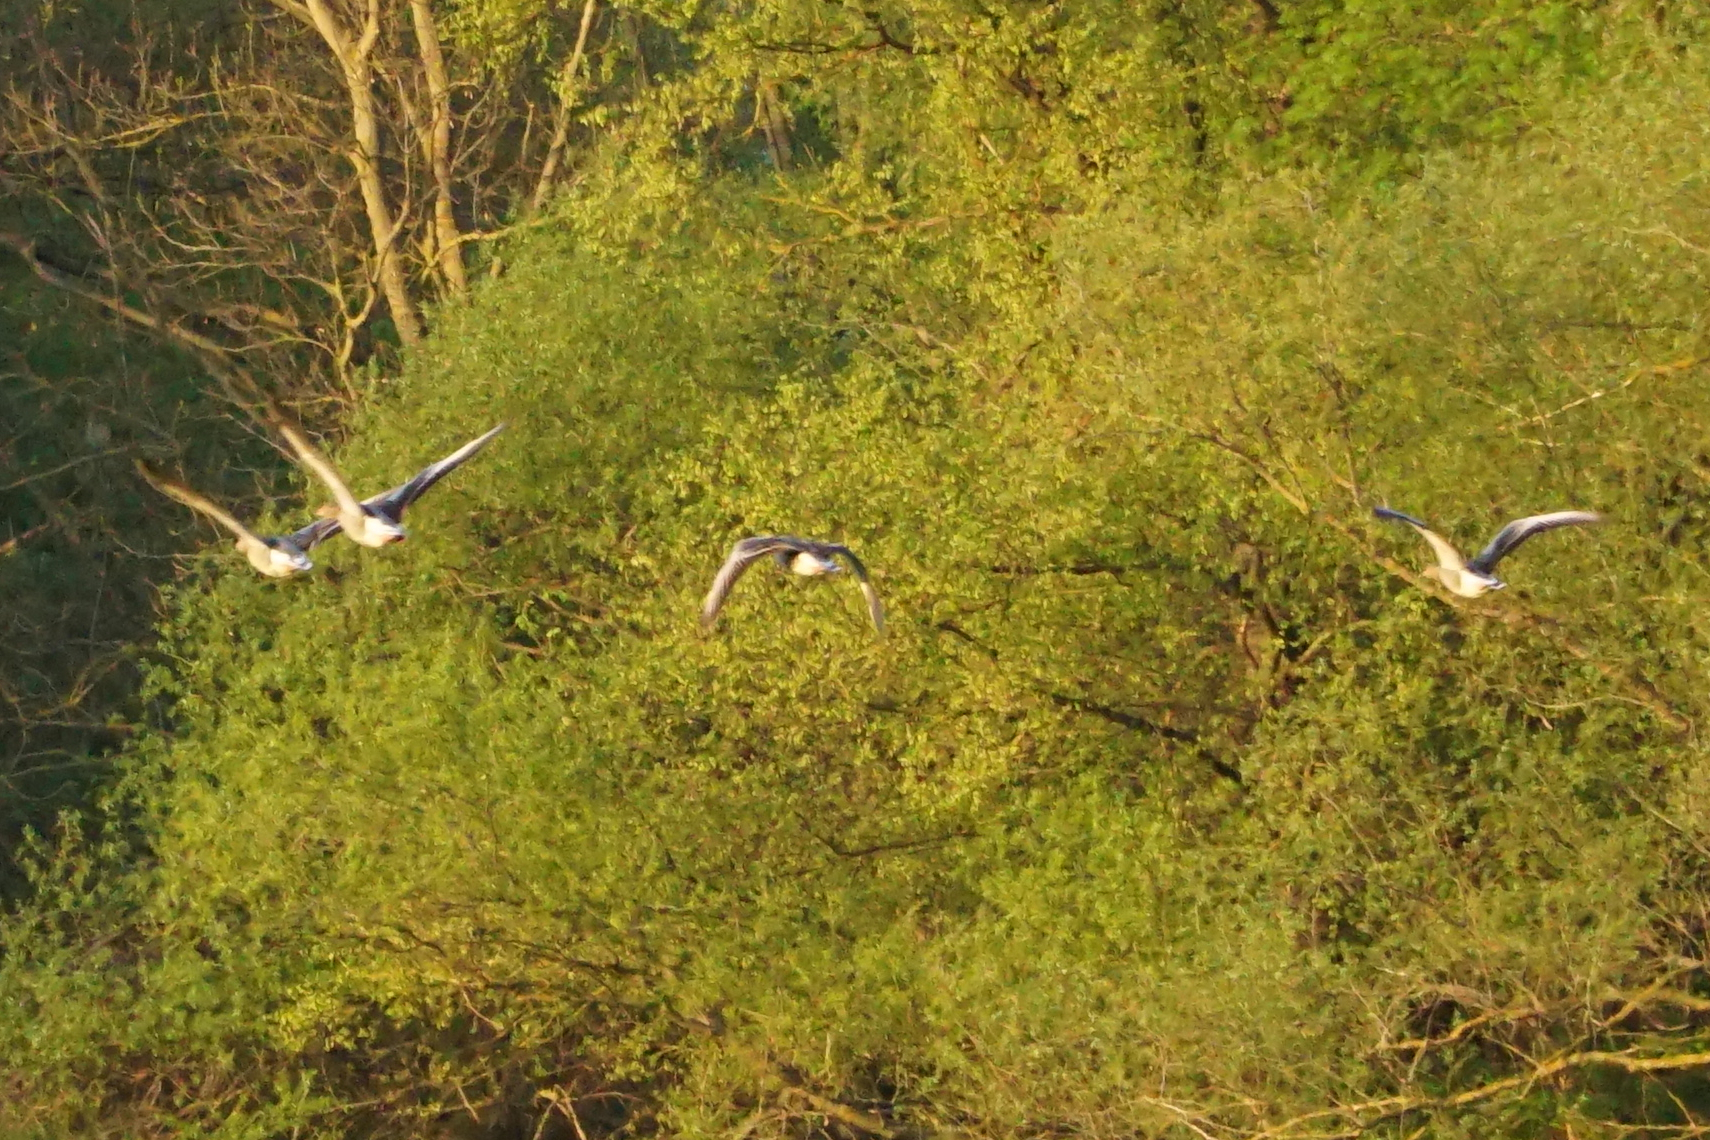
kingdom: Animalia
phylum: Chordata
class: Aves
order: Anseriformes
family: Anatidae
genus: Anser
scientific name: Anser anser
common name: Greylag goose
